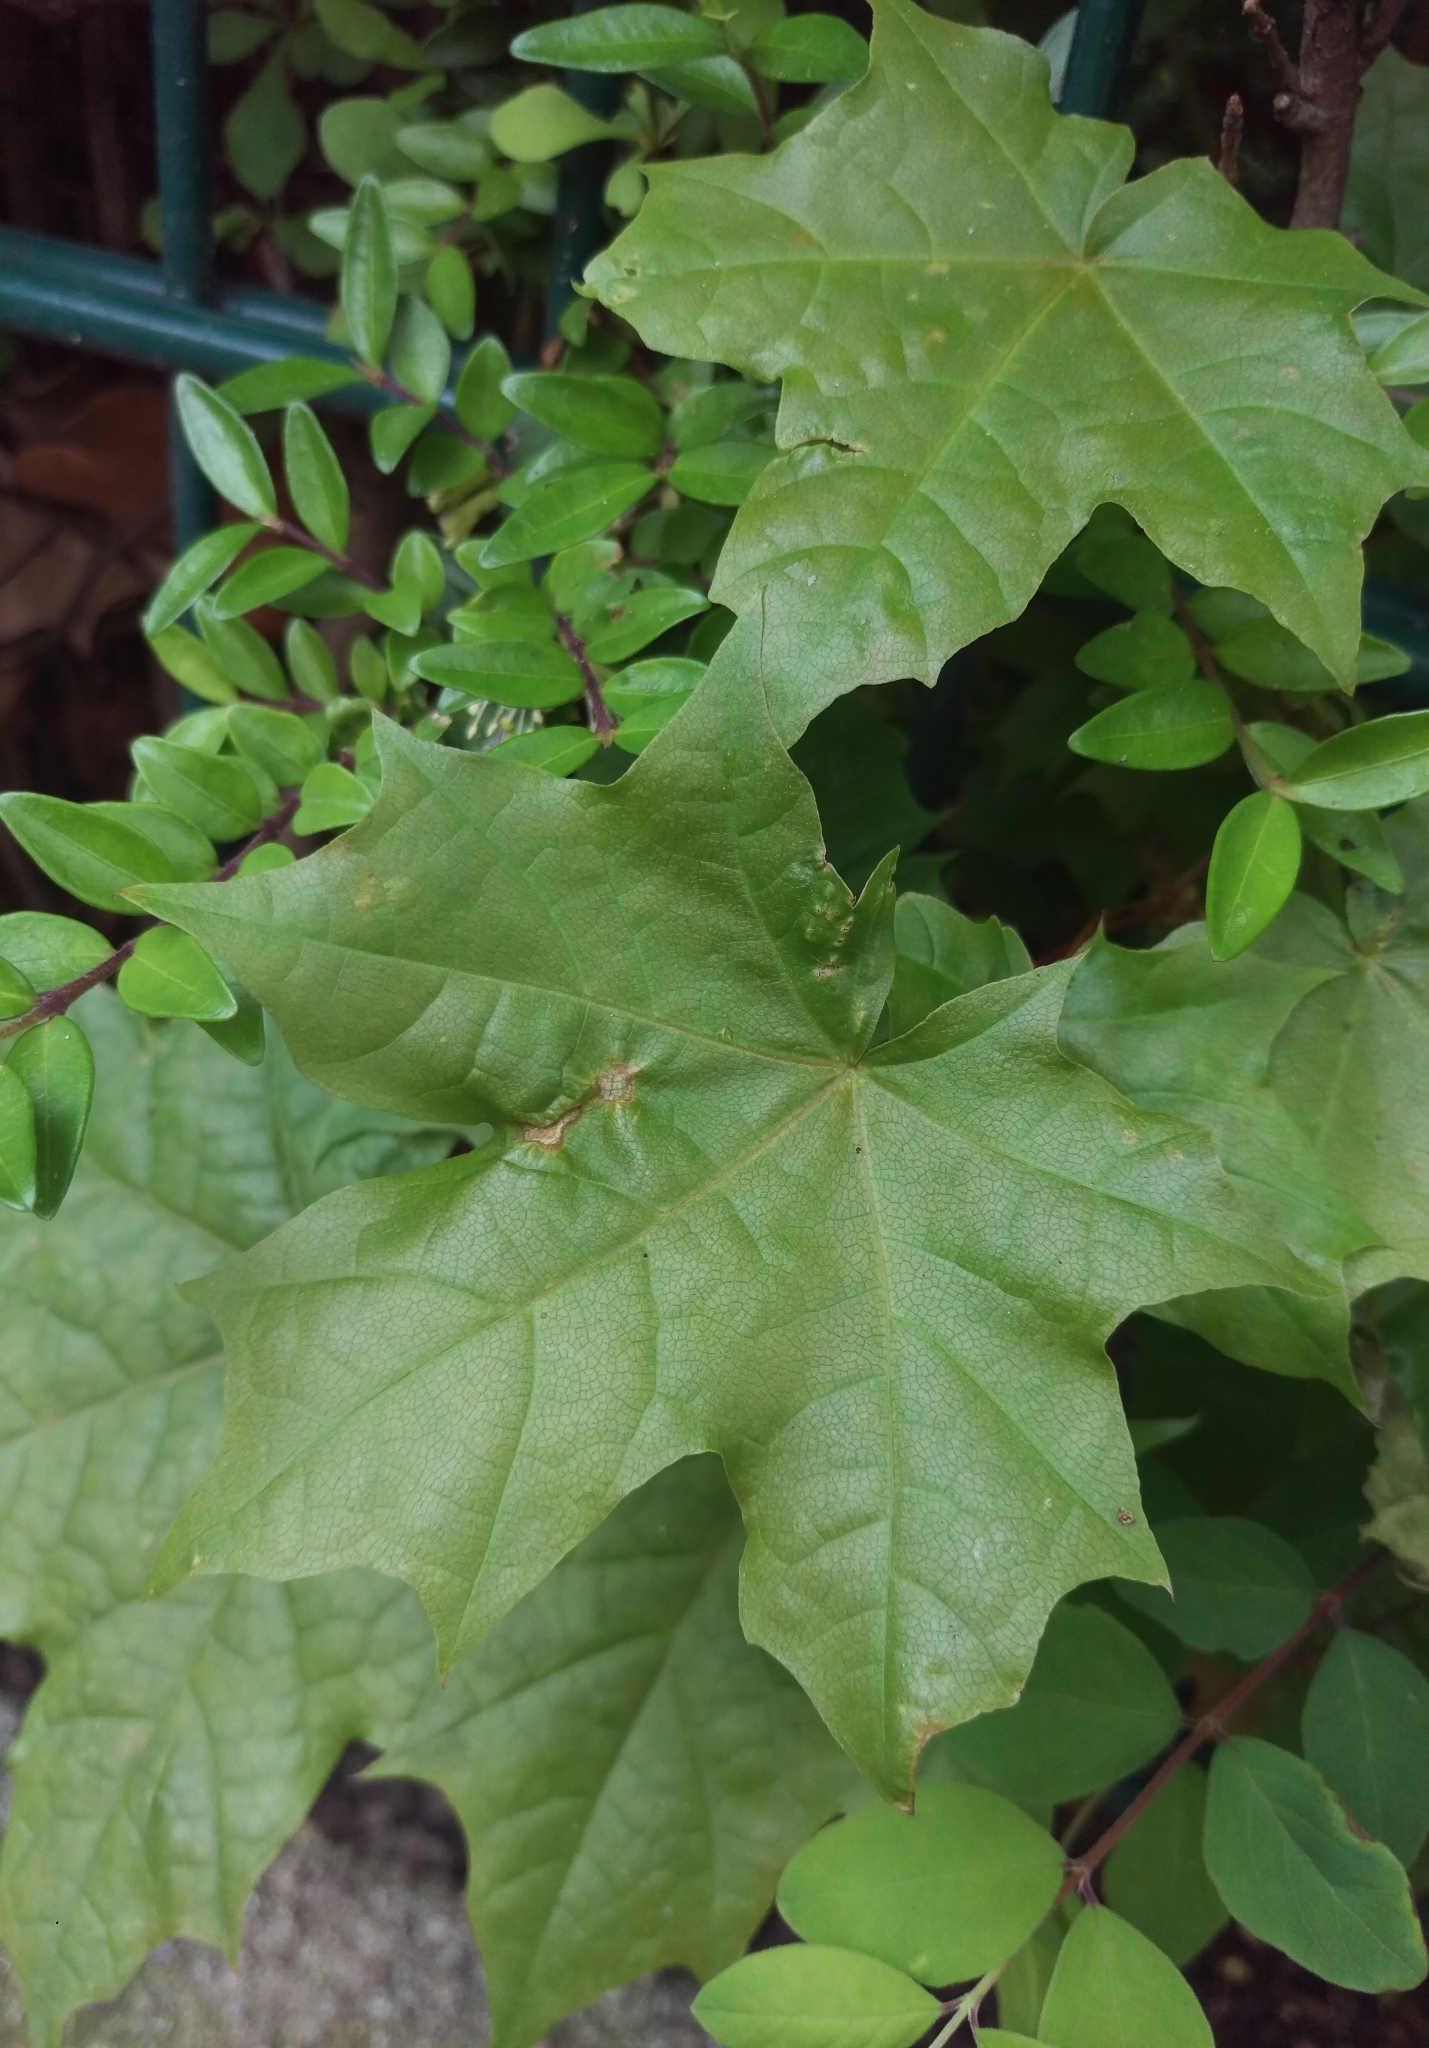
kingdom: Plantae
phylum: Tracheophyta
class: Magnoliopsida
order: Sapindales
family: Sapindaceae
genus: Acer
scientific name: Acer platanoides
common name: Norway maple
